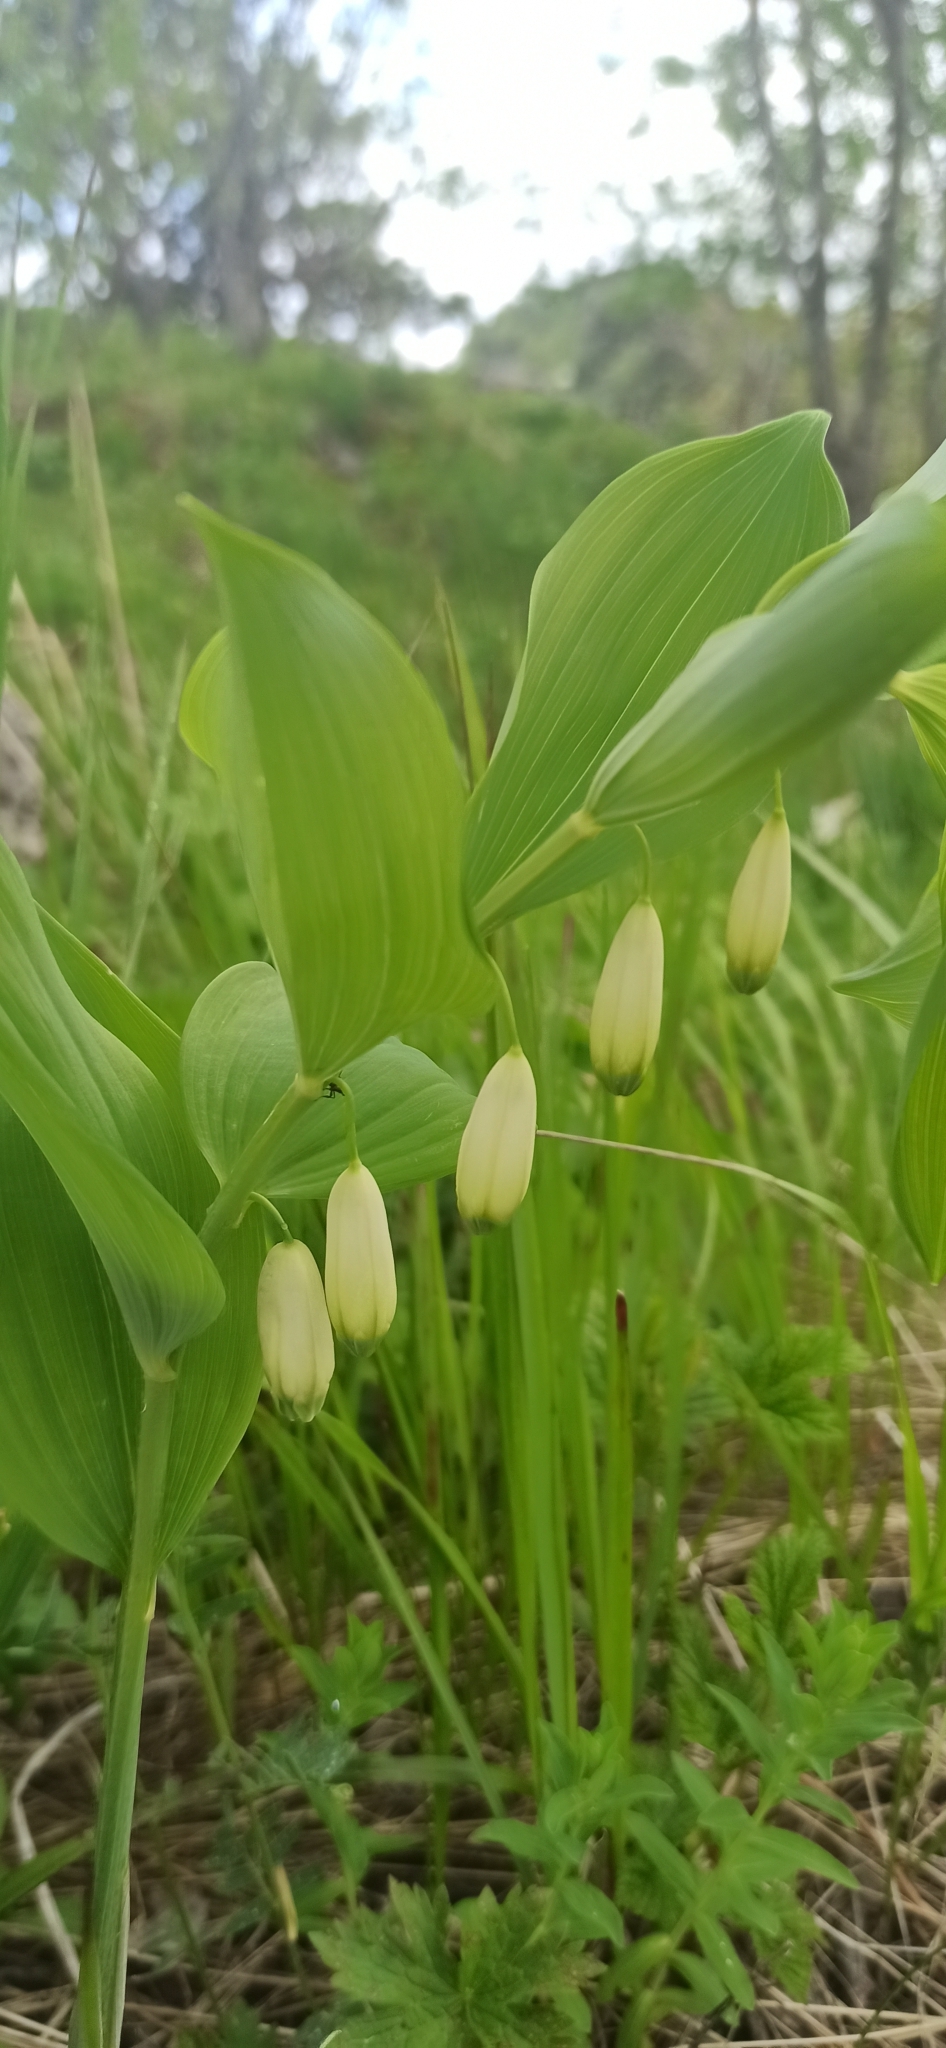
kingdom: Plantae
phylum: Tracheophyta
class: Liliopsida
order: Asparagales
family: Asparagaceae
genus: Polygonatum
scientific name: Polygonatum odoratum
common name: Angular solomon's-seal
